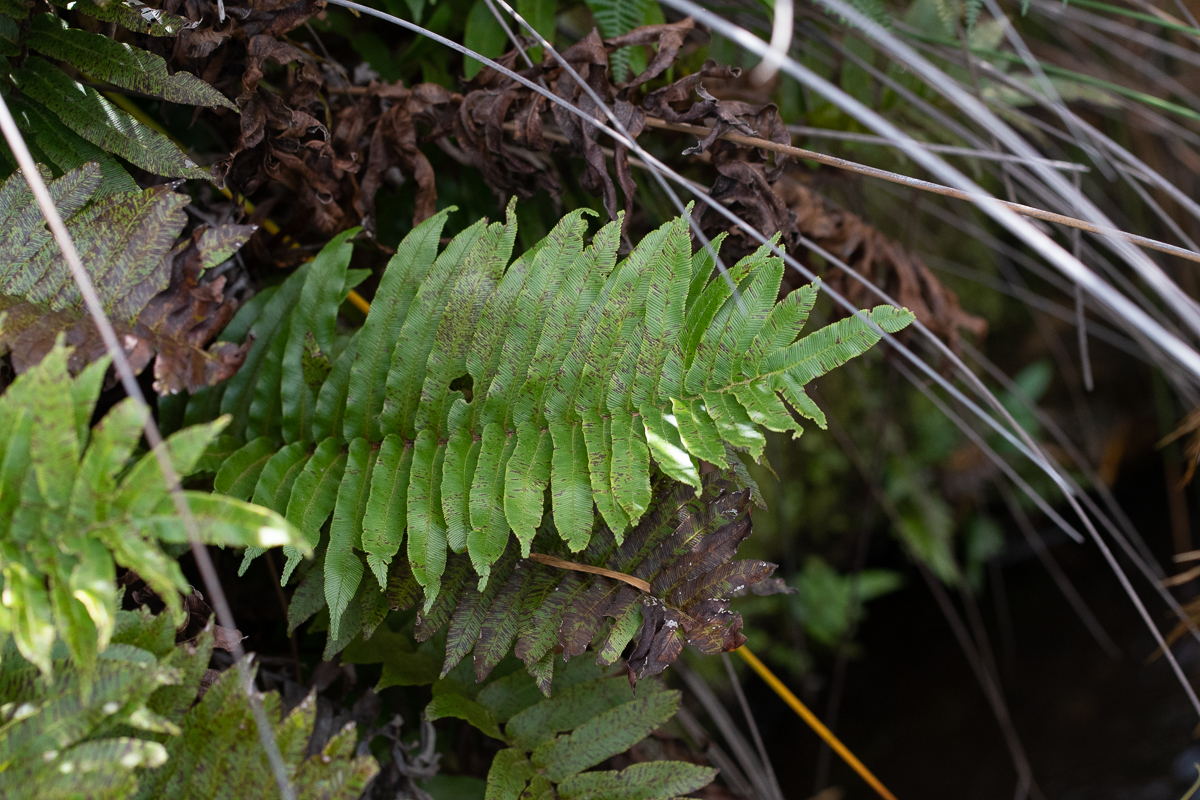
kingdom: Plantae
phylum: Tracheophyta
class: Polypodiopsida
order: Polypodiales
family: Blechnaceae
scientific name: Blechnaceae
